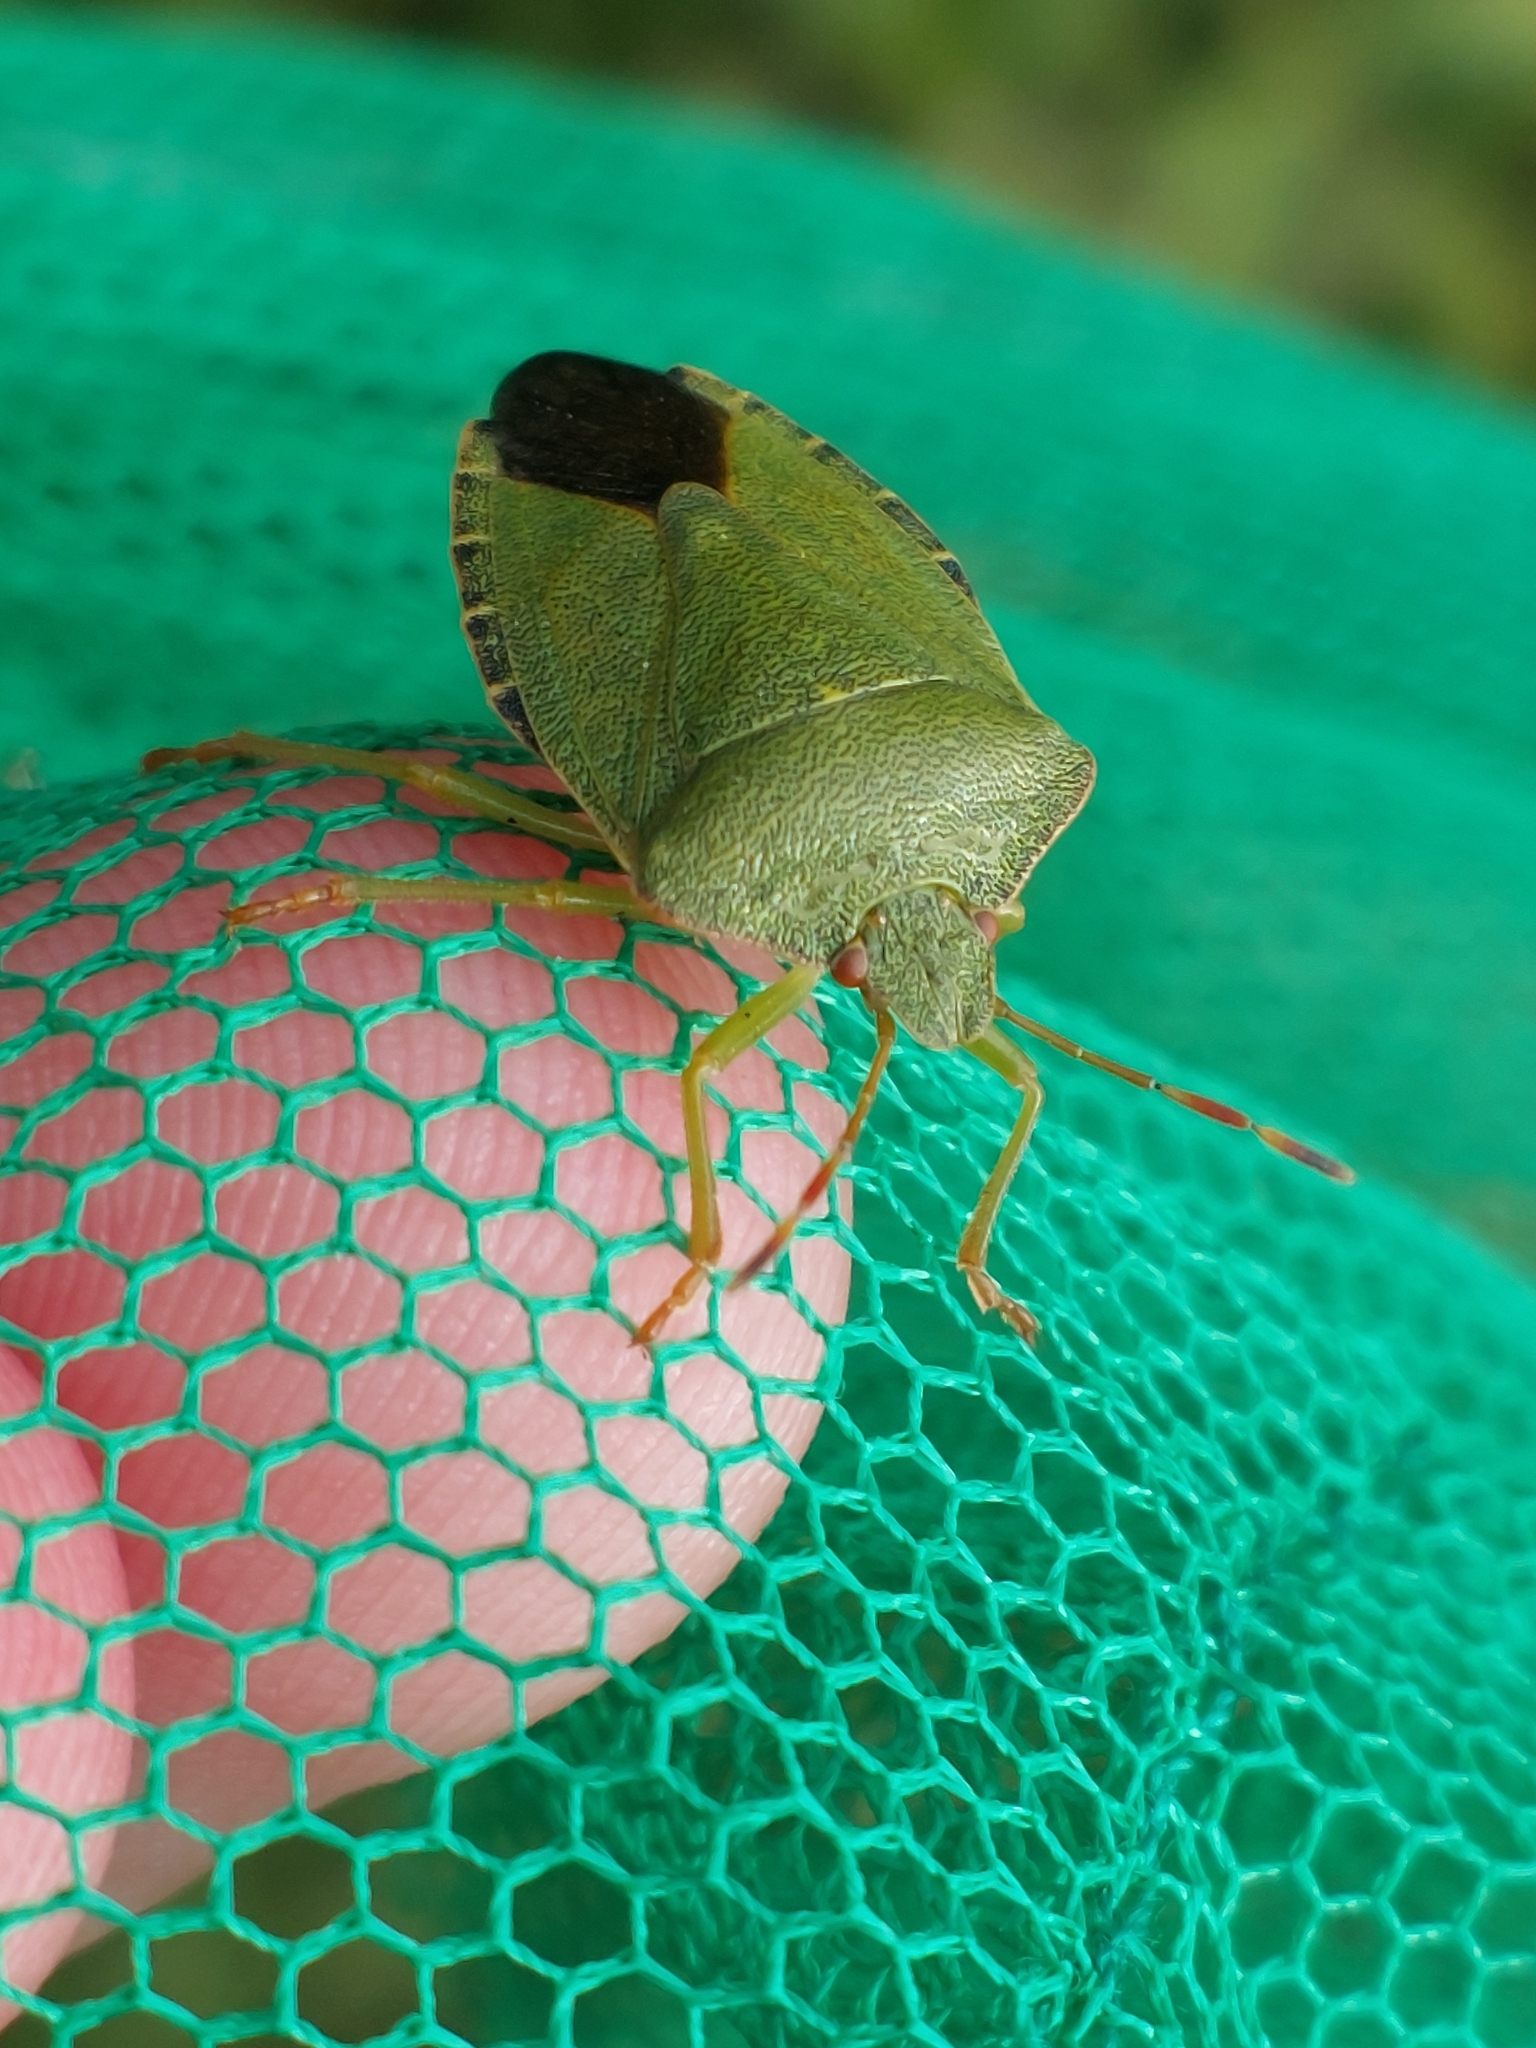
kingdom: Animalia
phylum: Arthropoda
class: Insecta
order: Hemiptera
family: Pentatomidae
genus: Palomena
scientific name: Palomena prasina
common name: Green shieldbug
